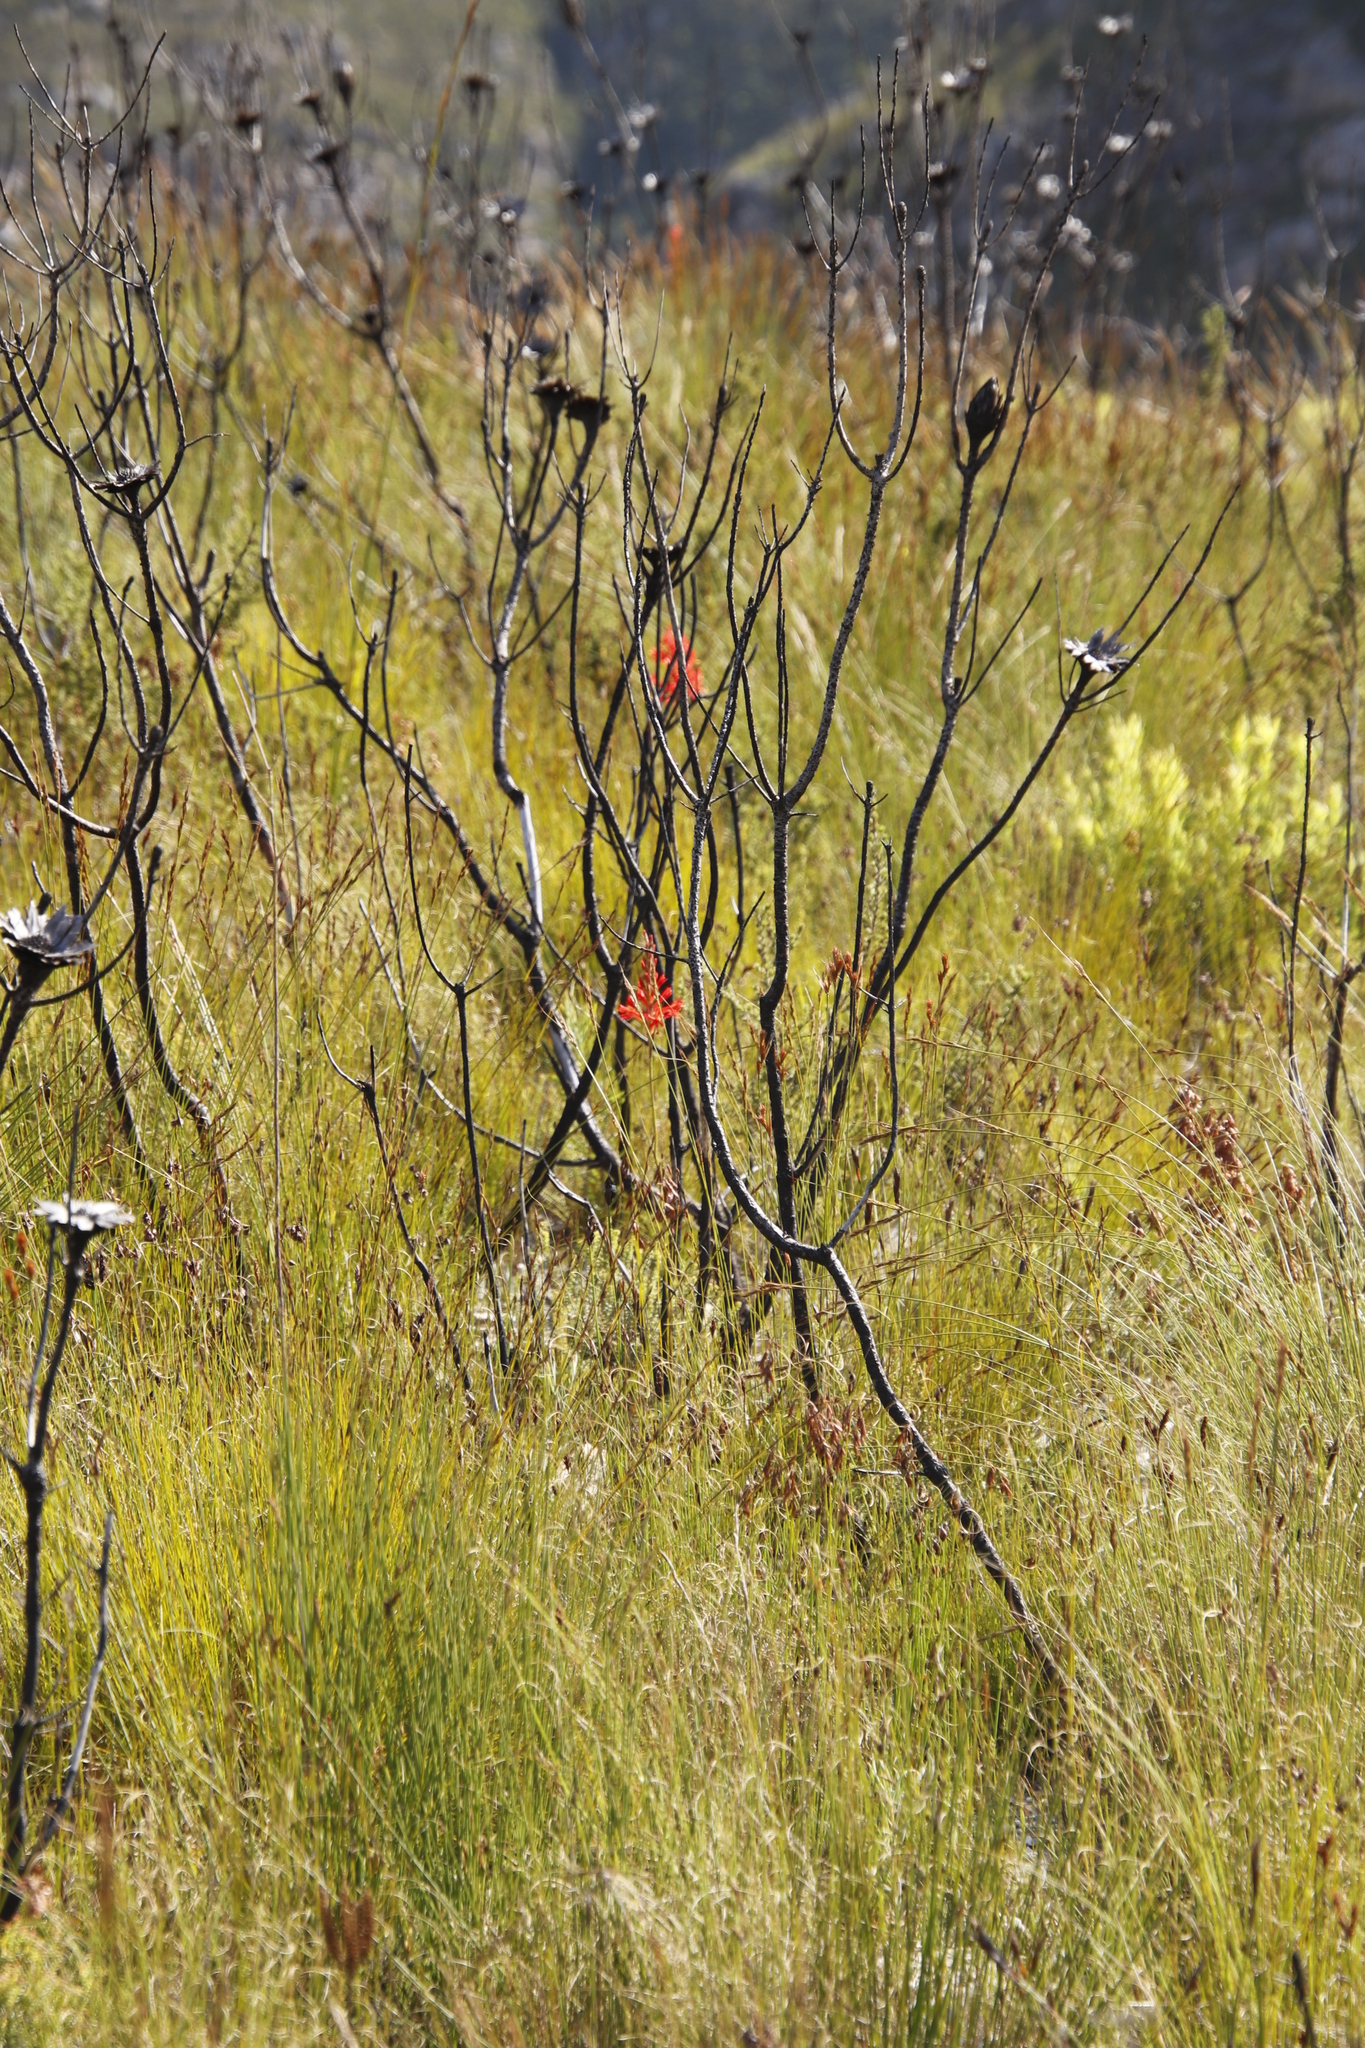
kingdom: Plantae
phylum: Tracheophyta
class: Liliopsida
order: Asparagales
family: Iridaceae
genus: Tritoniopsis
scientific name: Tritoniopsis triticea
